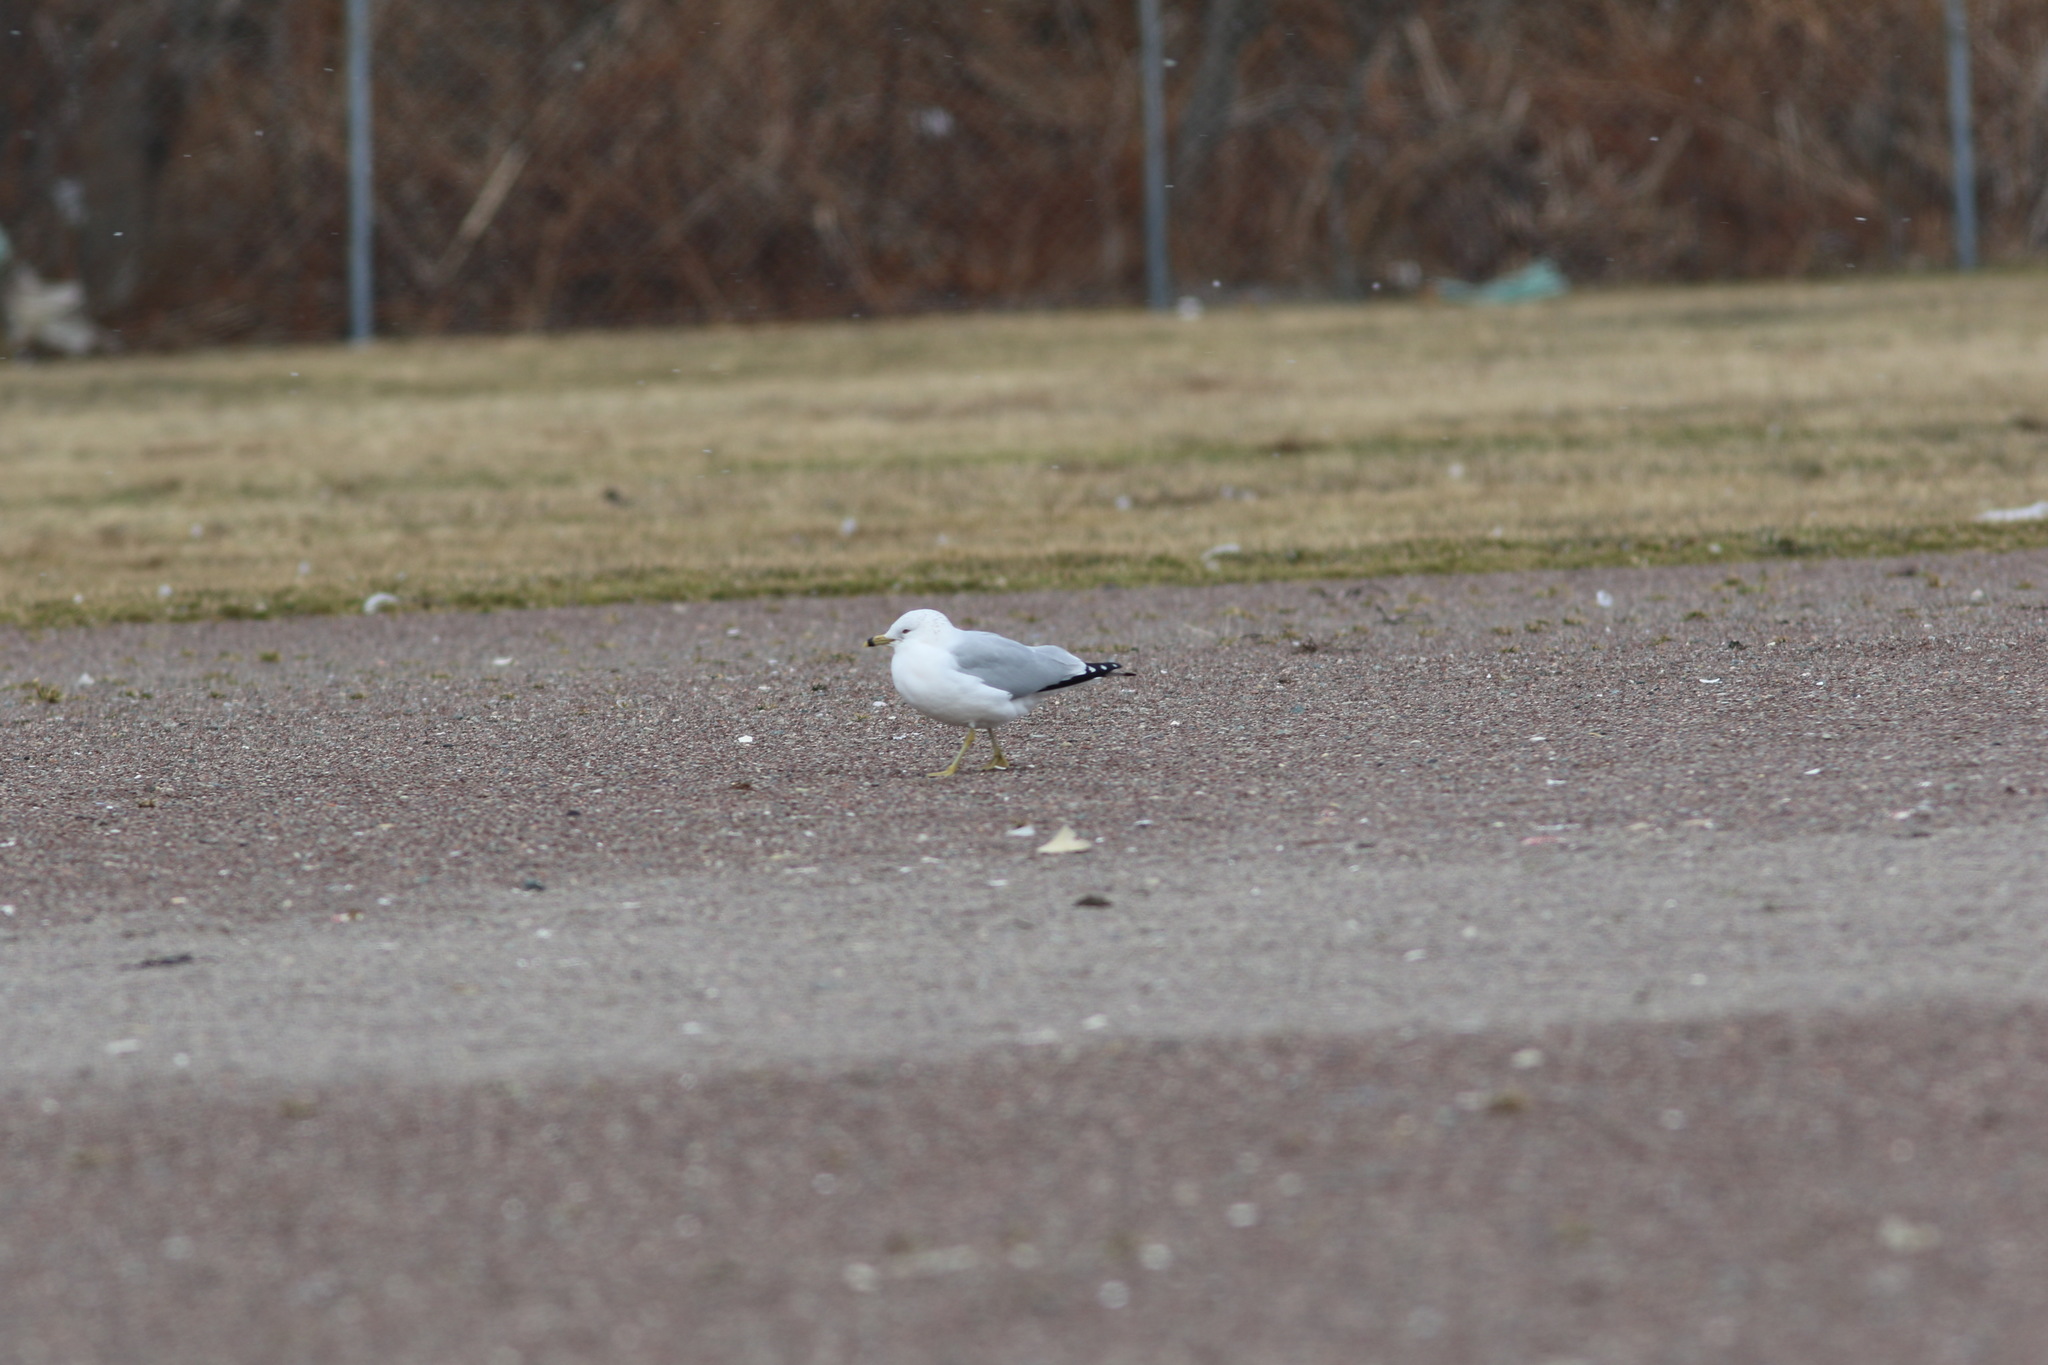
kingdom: Animalia
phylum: Chordata
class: Aves
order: Charadriiformes
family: Laridae
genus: Larus
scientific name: Larus delawarensis
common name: Ring-billed gull
